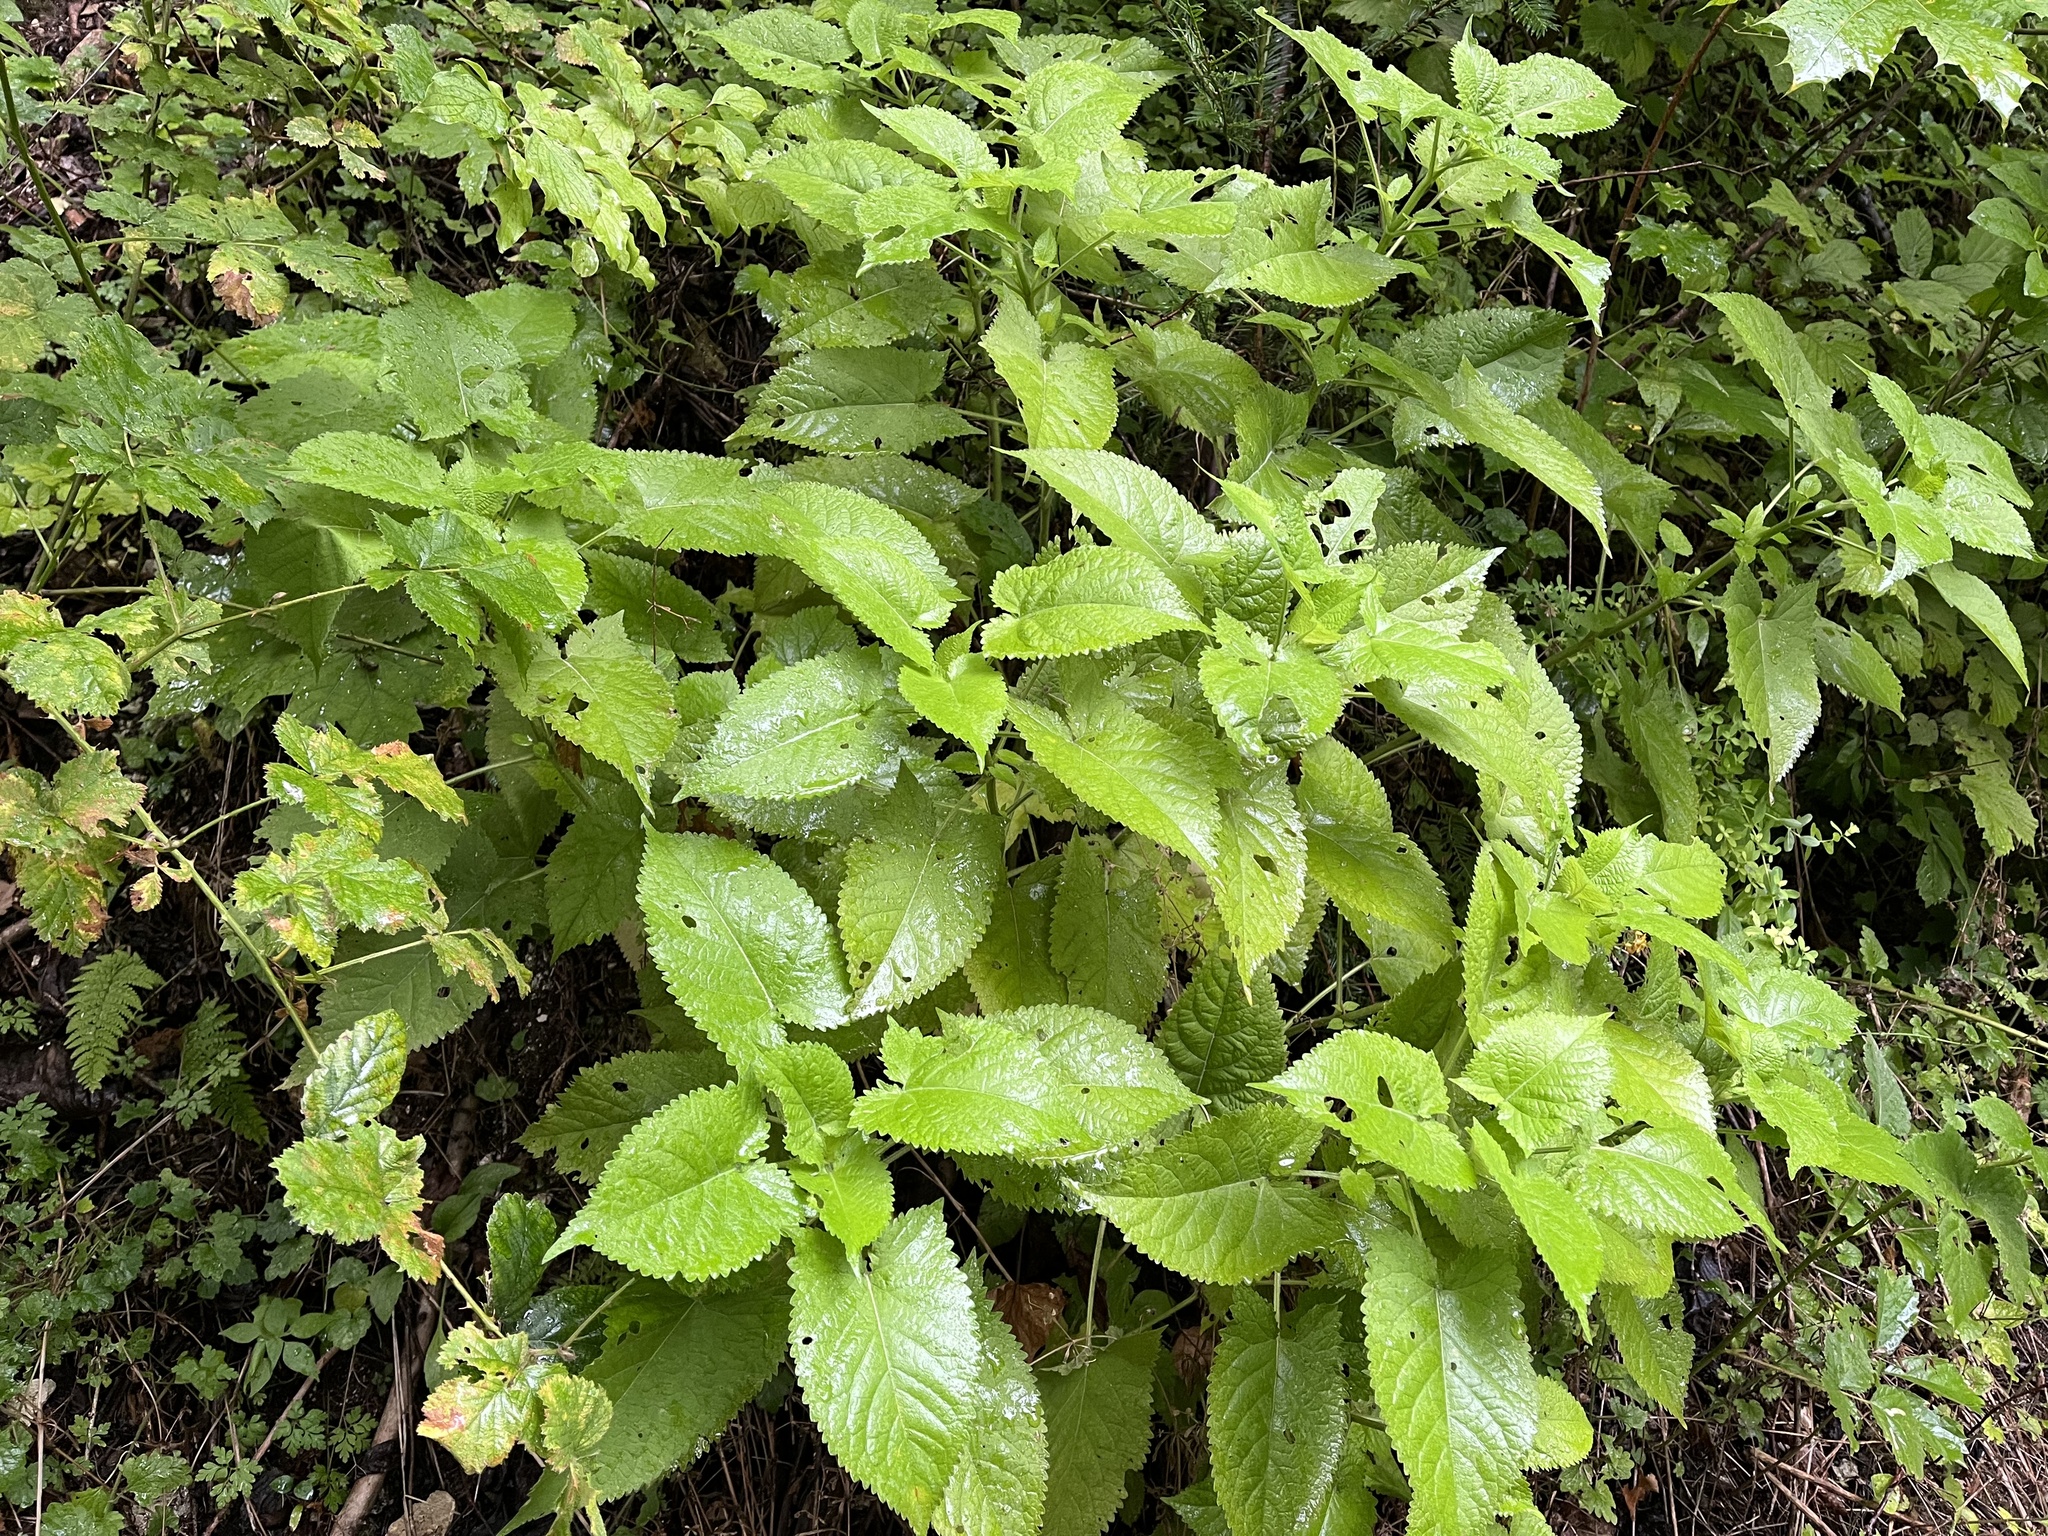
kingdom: Plantae
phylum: Tracheophyta
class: Magnoliopsida
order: Lamiales
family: Lamiaceae
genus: Salvia
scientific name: Salvia glutinosa
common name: Sticky clary
